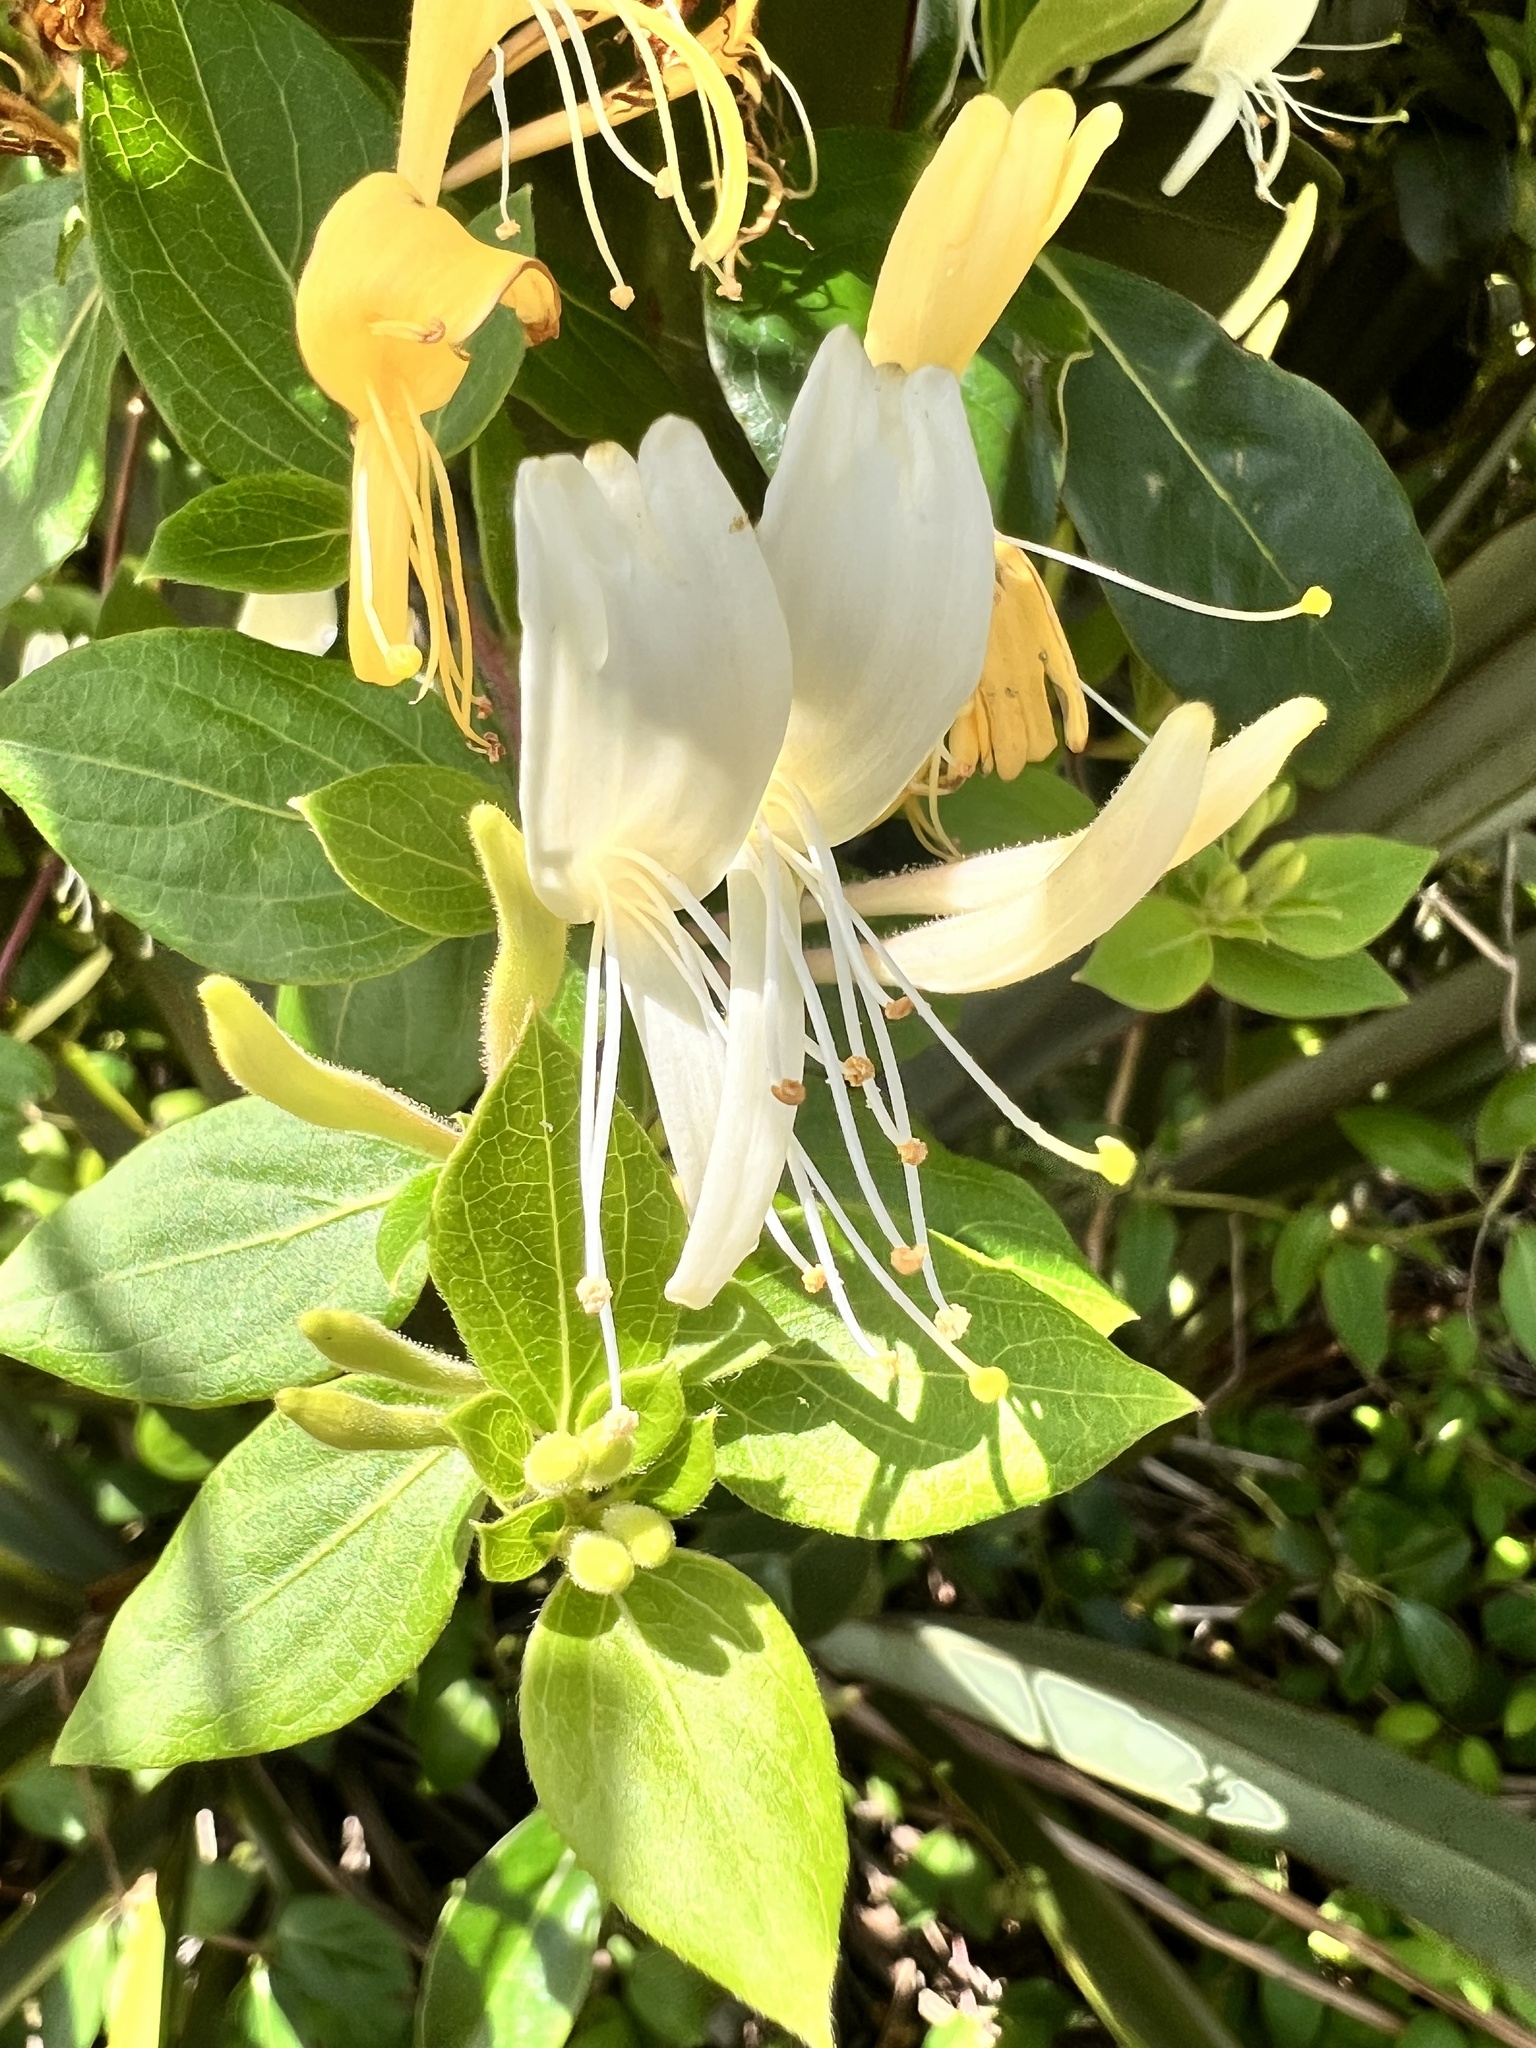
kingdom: Plantae
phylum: Tracheophyta
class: Magnoliopsida
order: Dipsacales
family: Caprifoliaceae
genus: Lonicera
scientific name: Lonicera japonica
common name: Japanese honeysuckle
